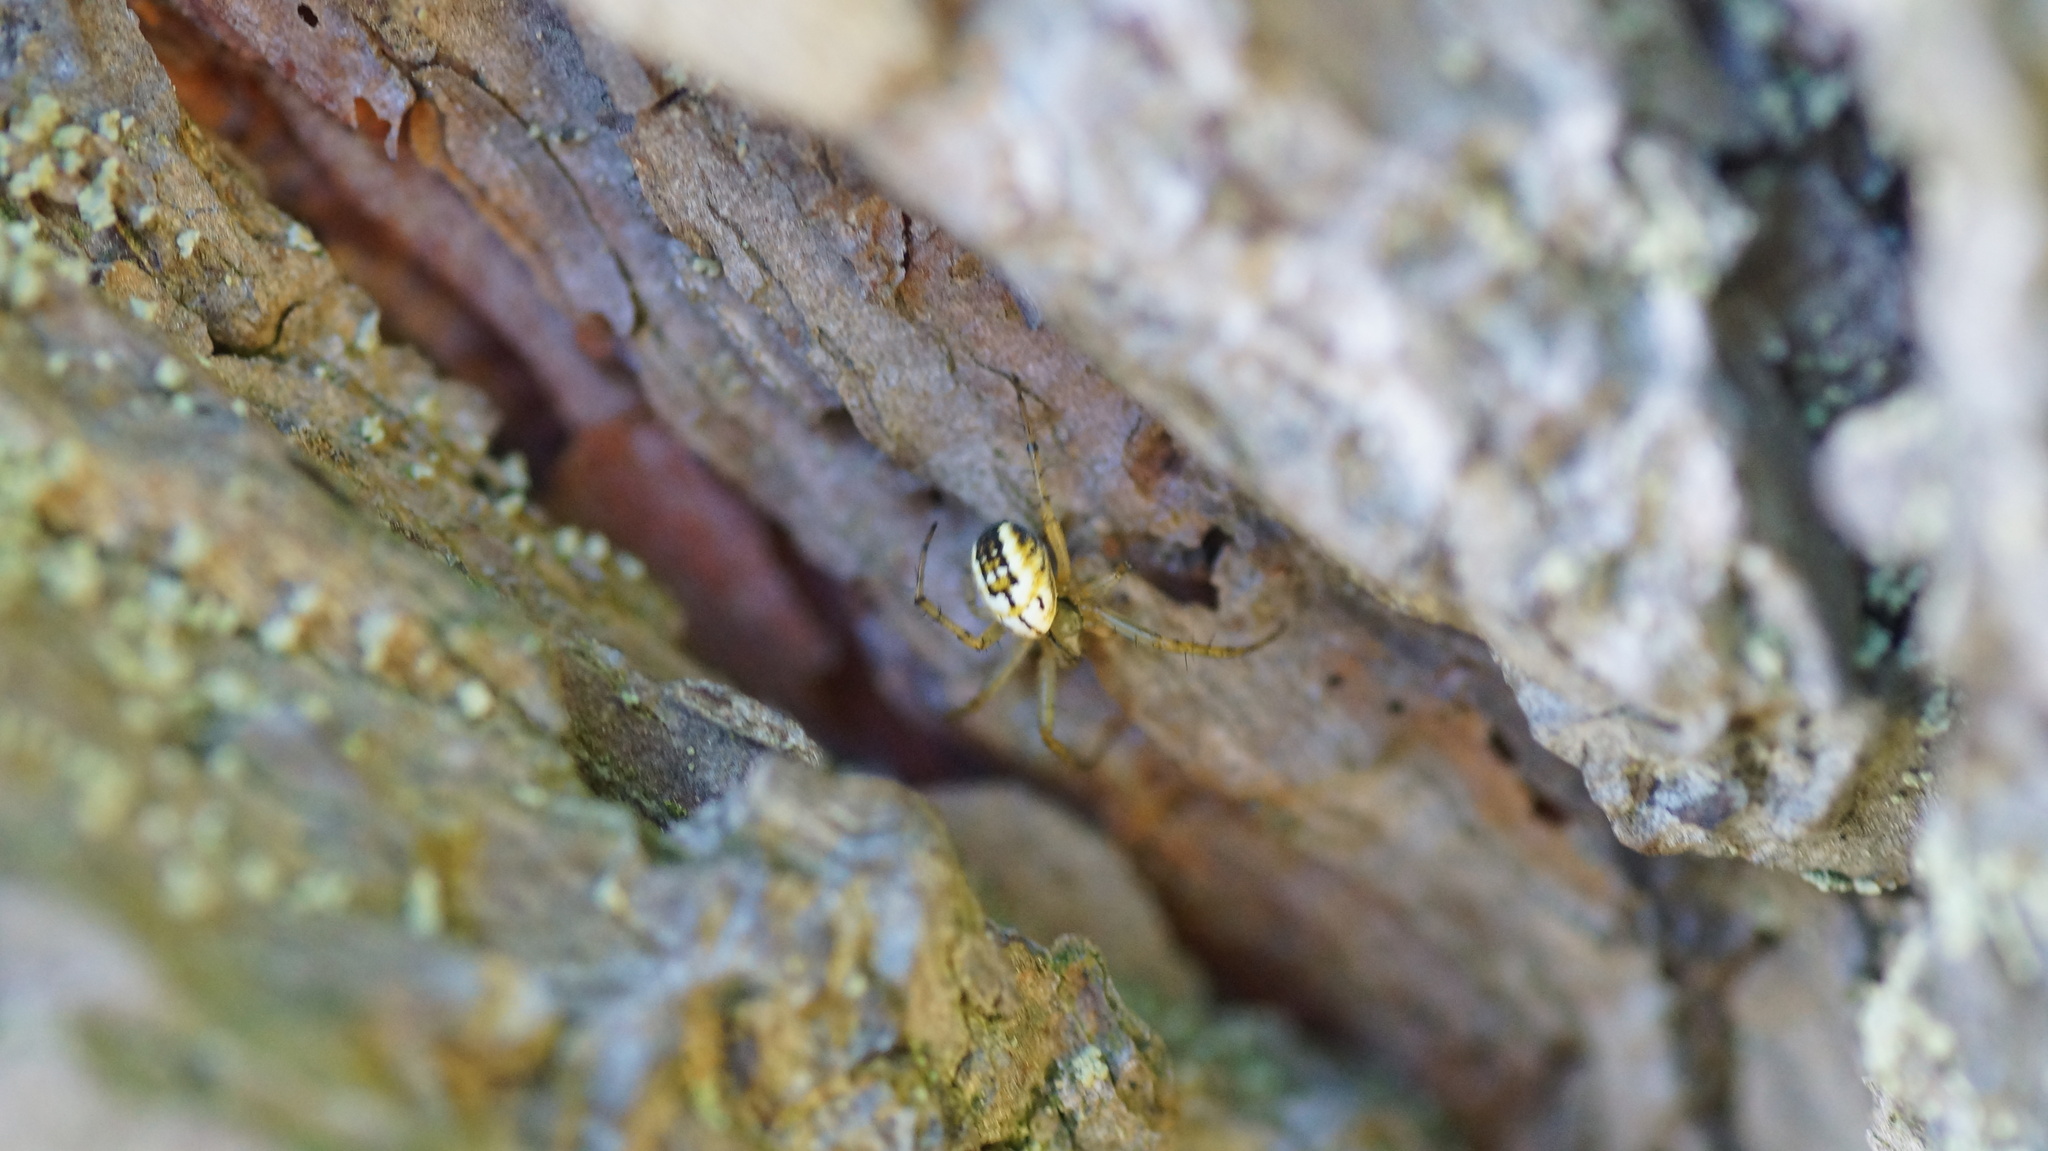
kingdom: Animalia
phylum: Arthropoda
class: Arachnida
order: Araneae
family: Araneidae
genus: Mangora
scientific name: Mangora acalypha
